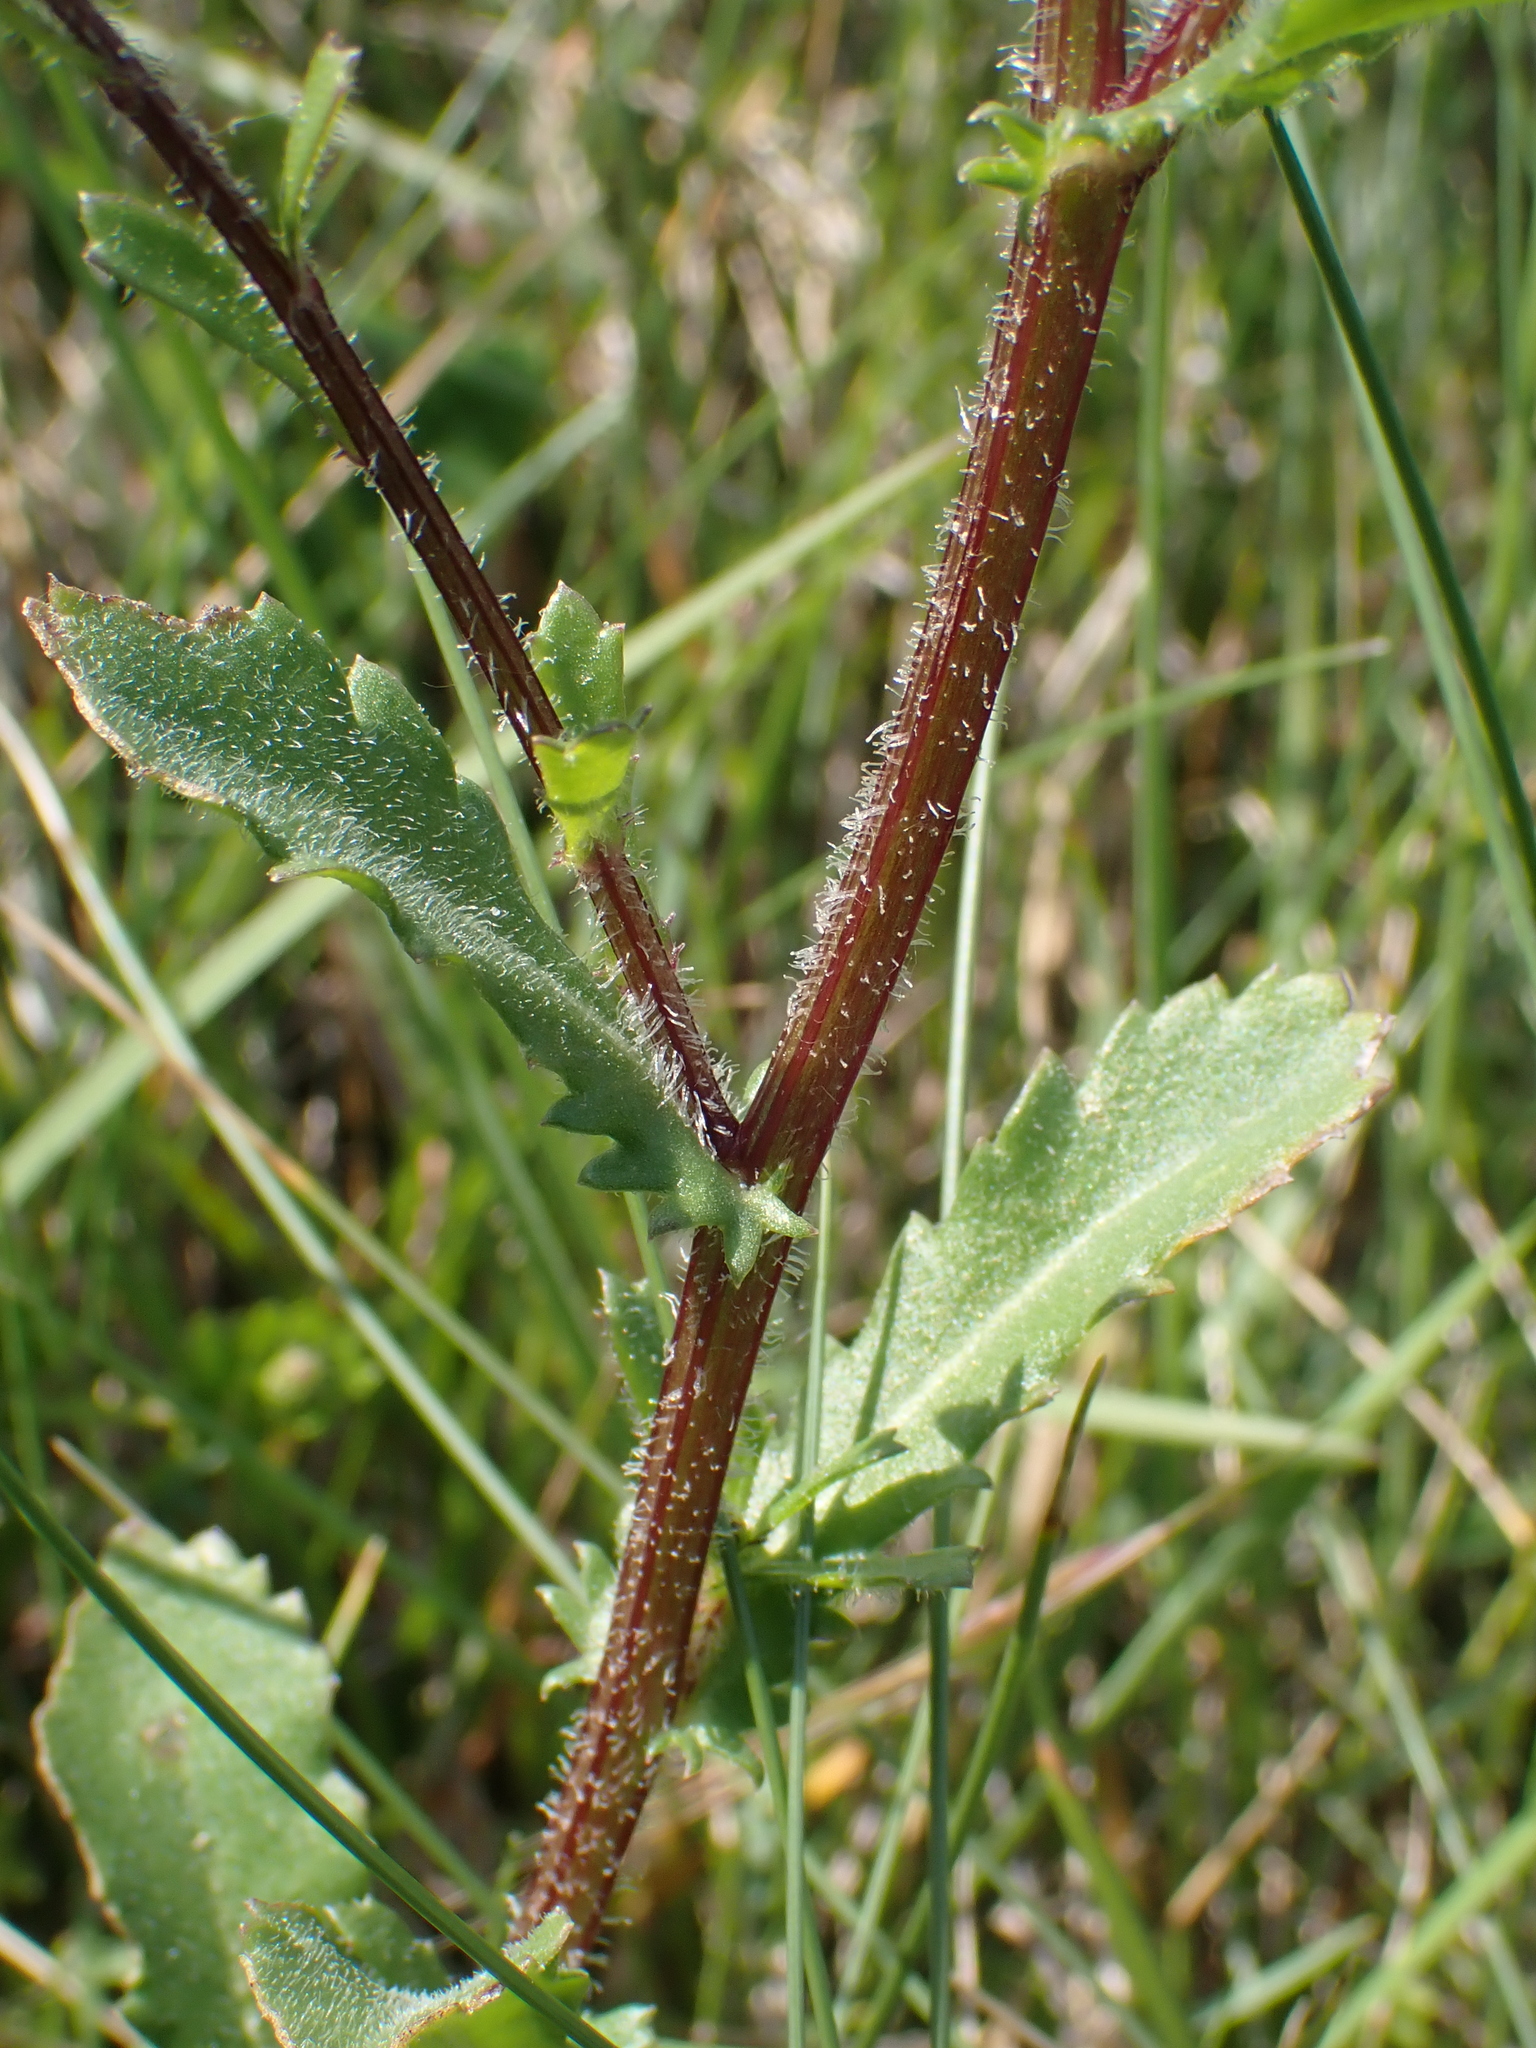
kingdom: Plantae
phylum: Tracheophyta
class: Magnoliopsida
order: Asterales
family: Asteraceae
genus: Leucanthemum
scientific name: Leucanthemum ircutianum
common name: Daisy
